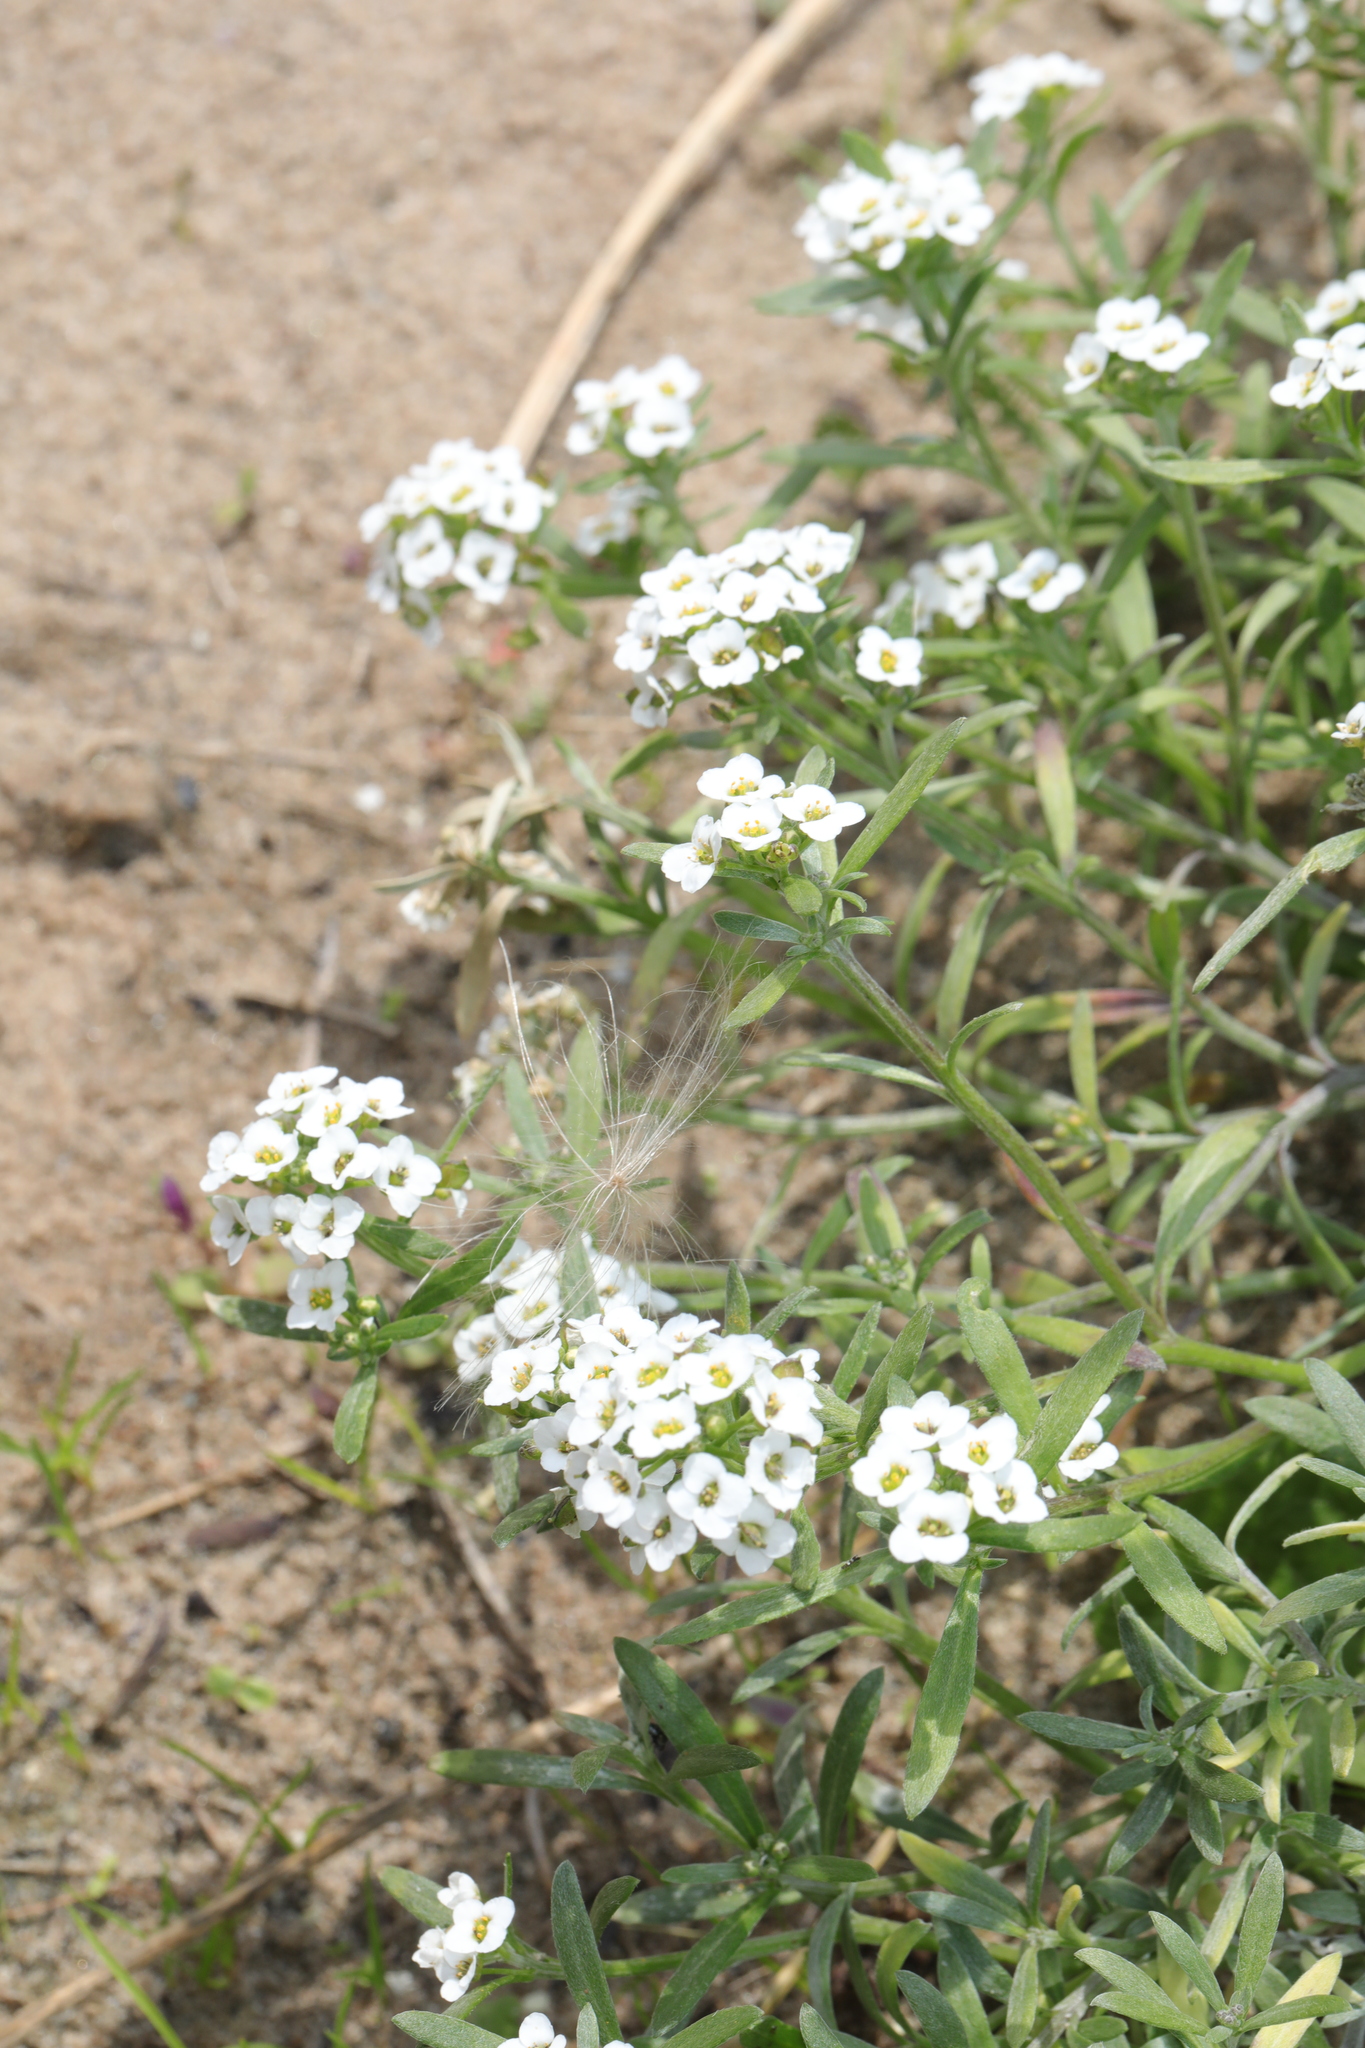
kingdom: Plantae
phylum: Tracheophyta
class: Magnoliopsida
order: Brassicales
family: Brassicaceae
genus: Lobularia
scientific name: Lobularia maritima
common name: Sweet alison
